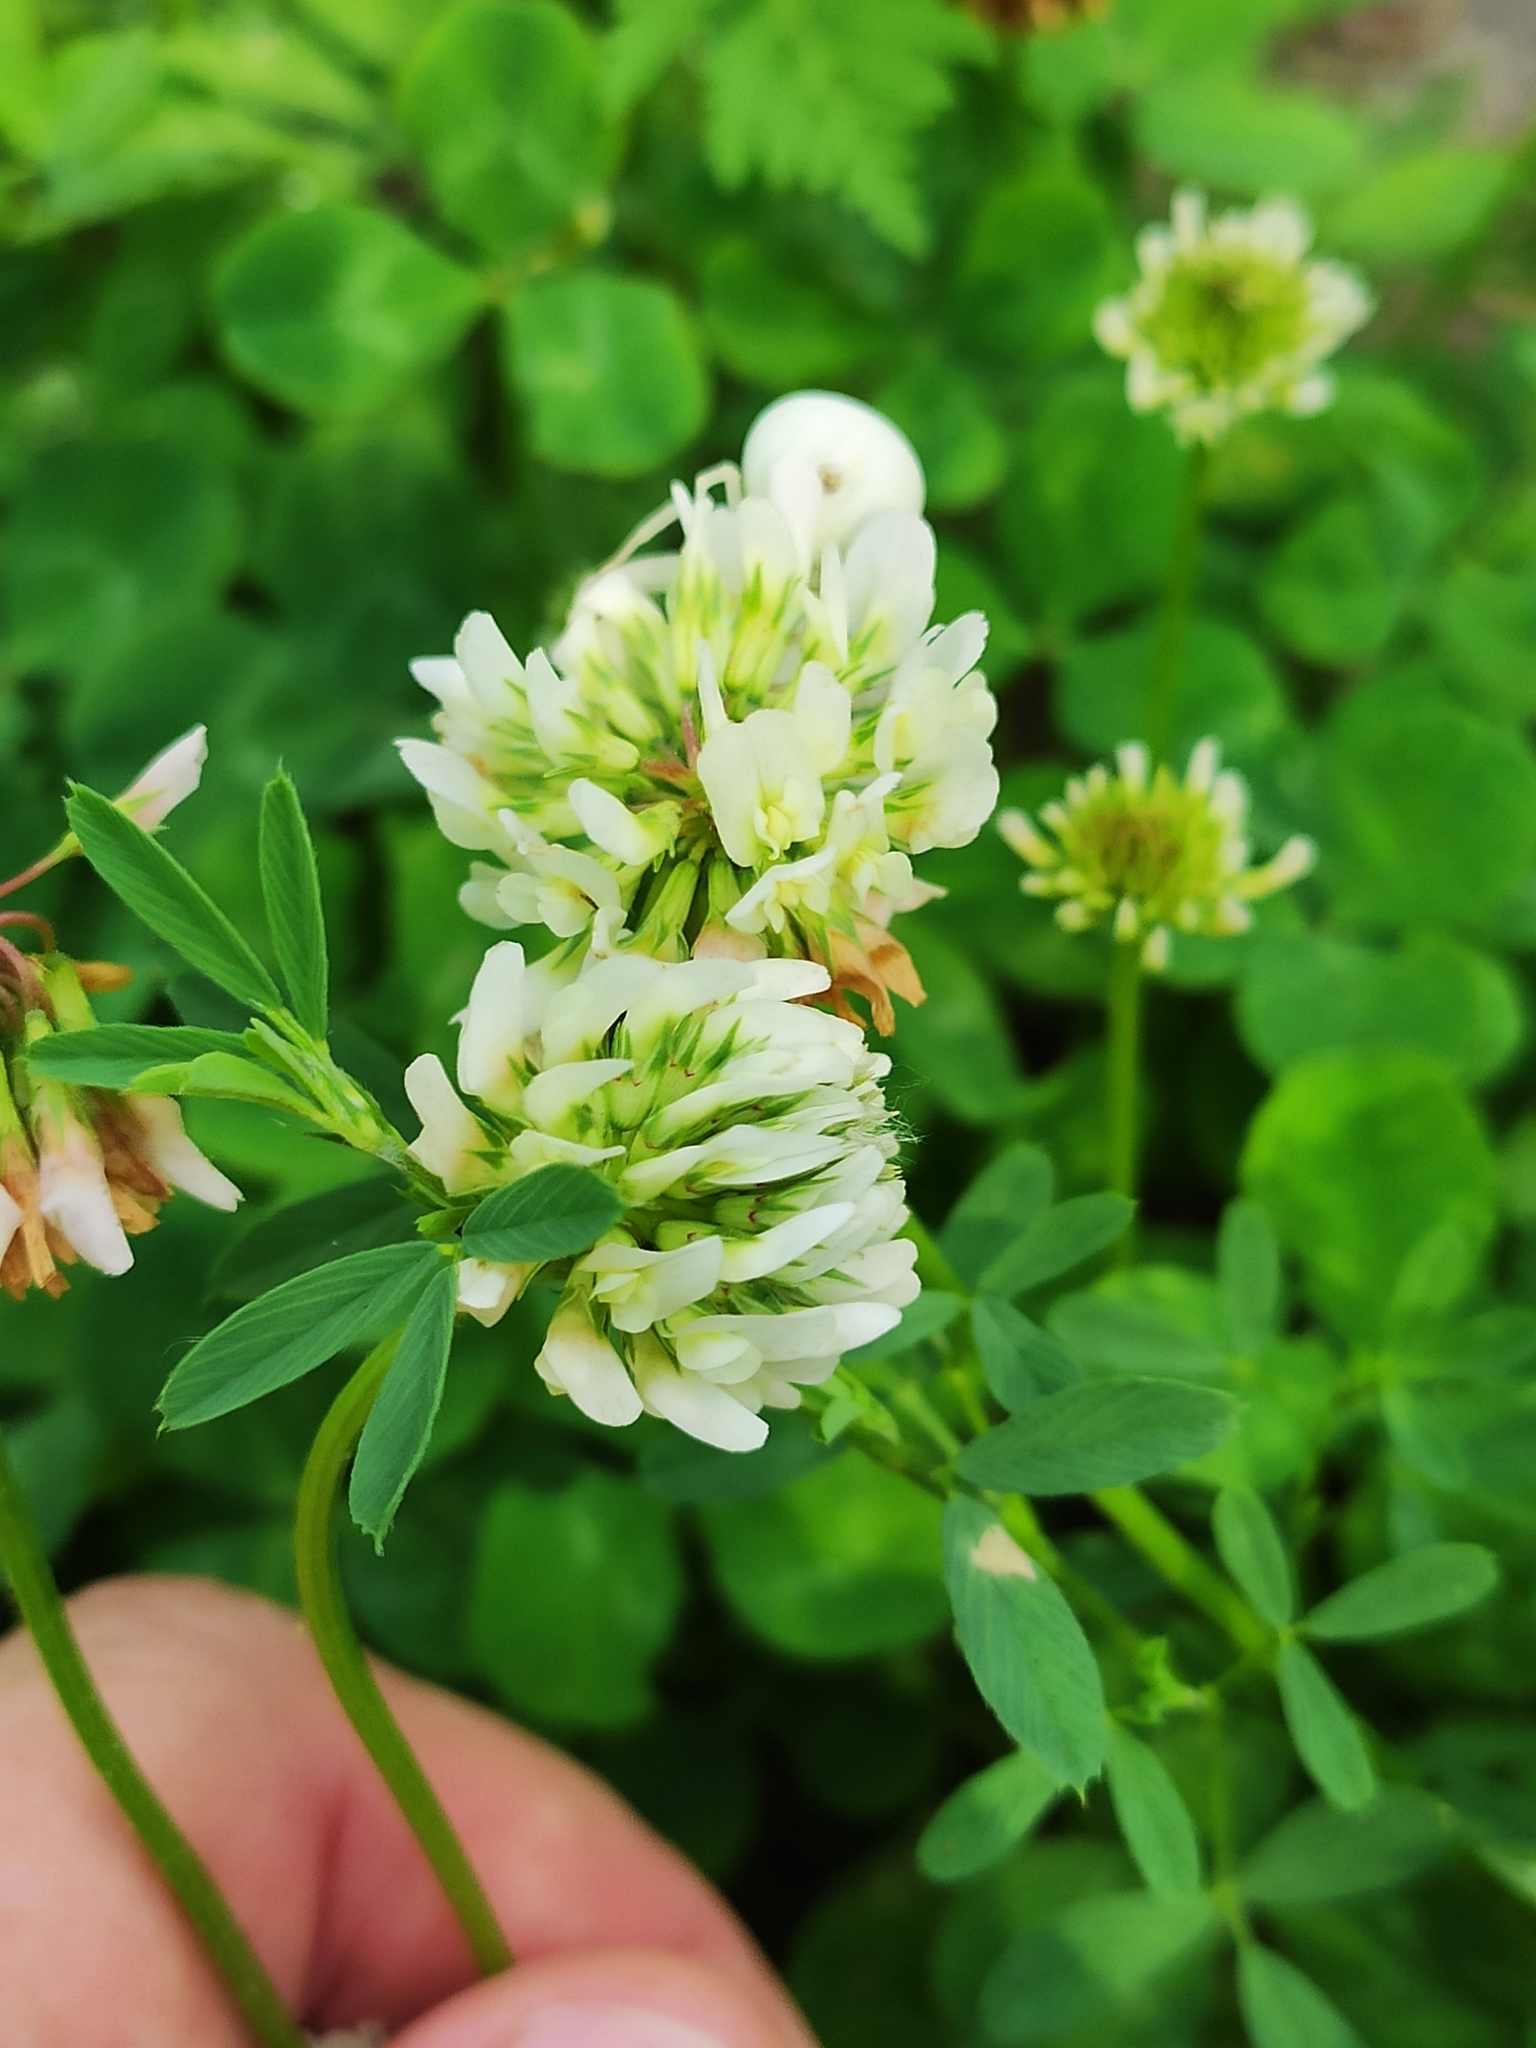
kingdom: Plantae
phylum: Tracheophyta
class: Magnoliopsida
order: Fabales
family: Fabaceae
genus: Trifolium
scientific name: Trifolium repens
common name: White clover
